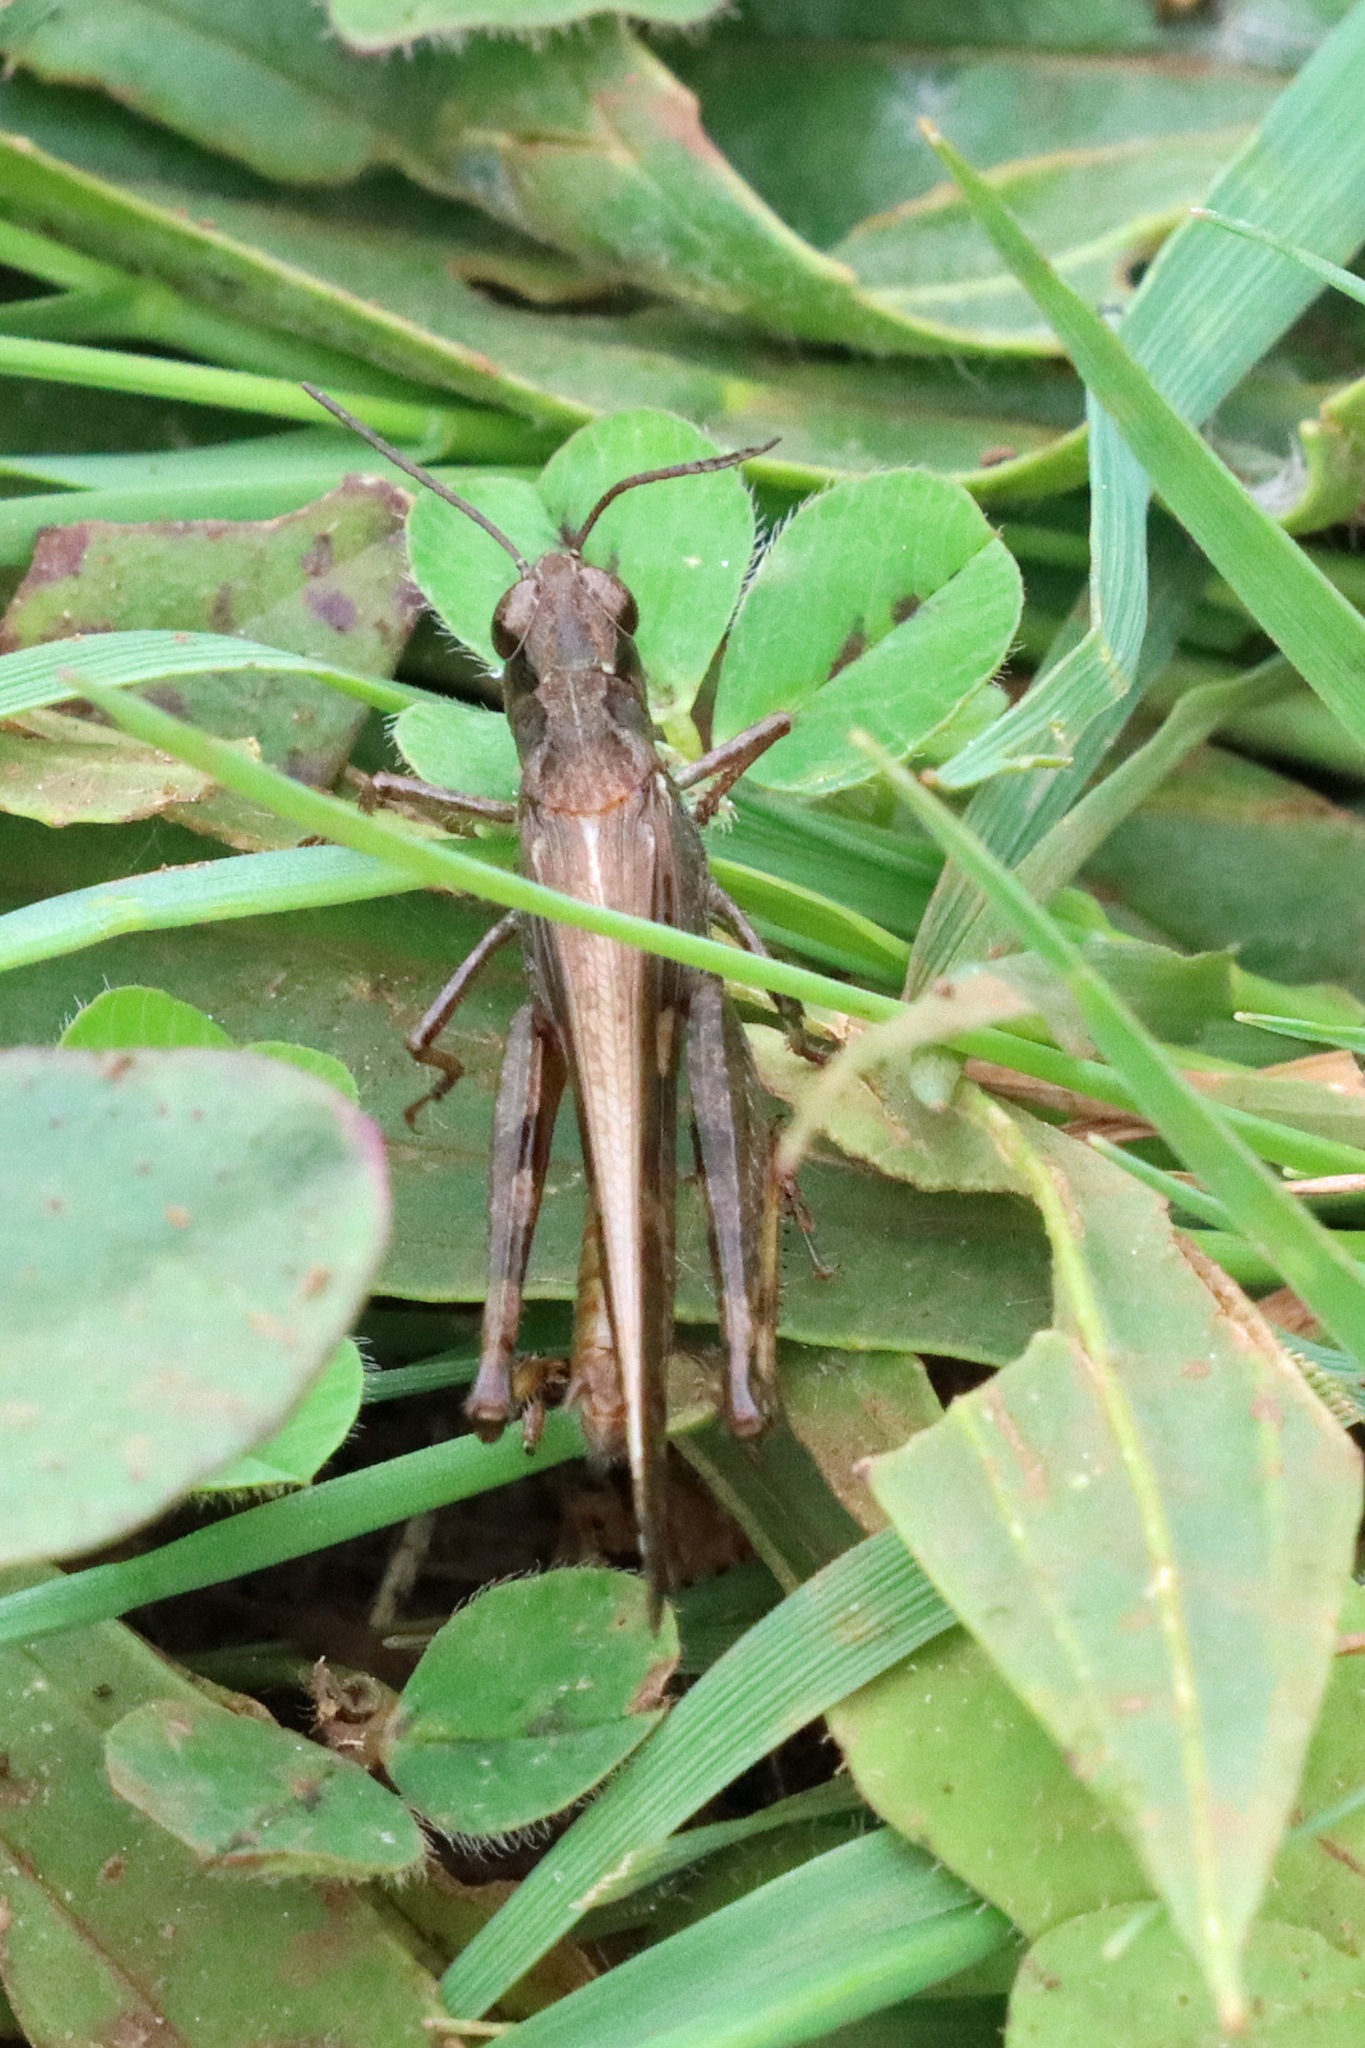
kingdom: Animalia
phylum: Arthropoda
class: Insecta
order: Orthoptera
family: Acrididae
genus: Aiolopus
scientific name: Aiolopus strepens
